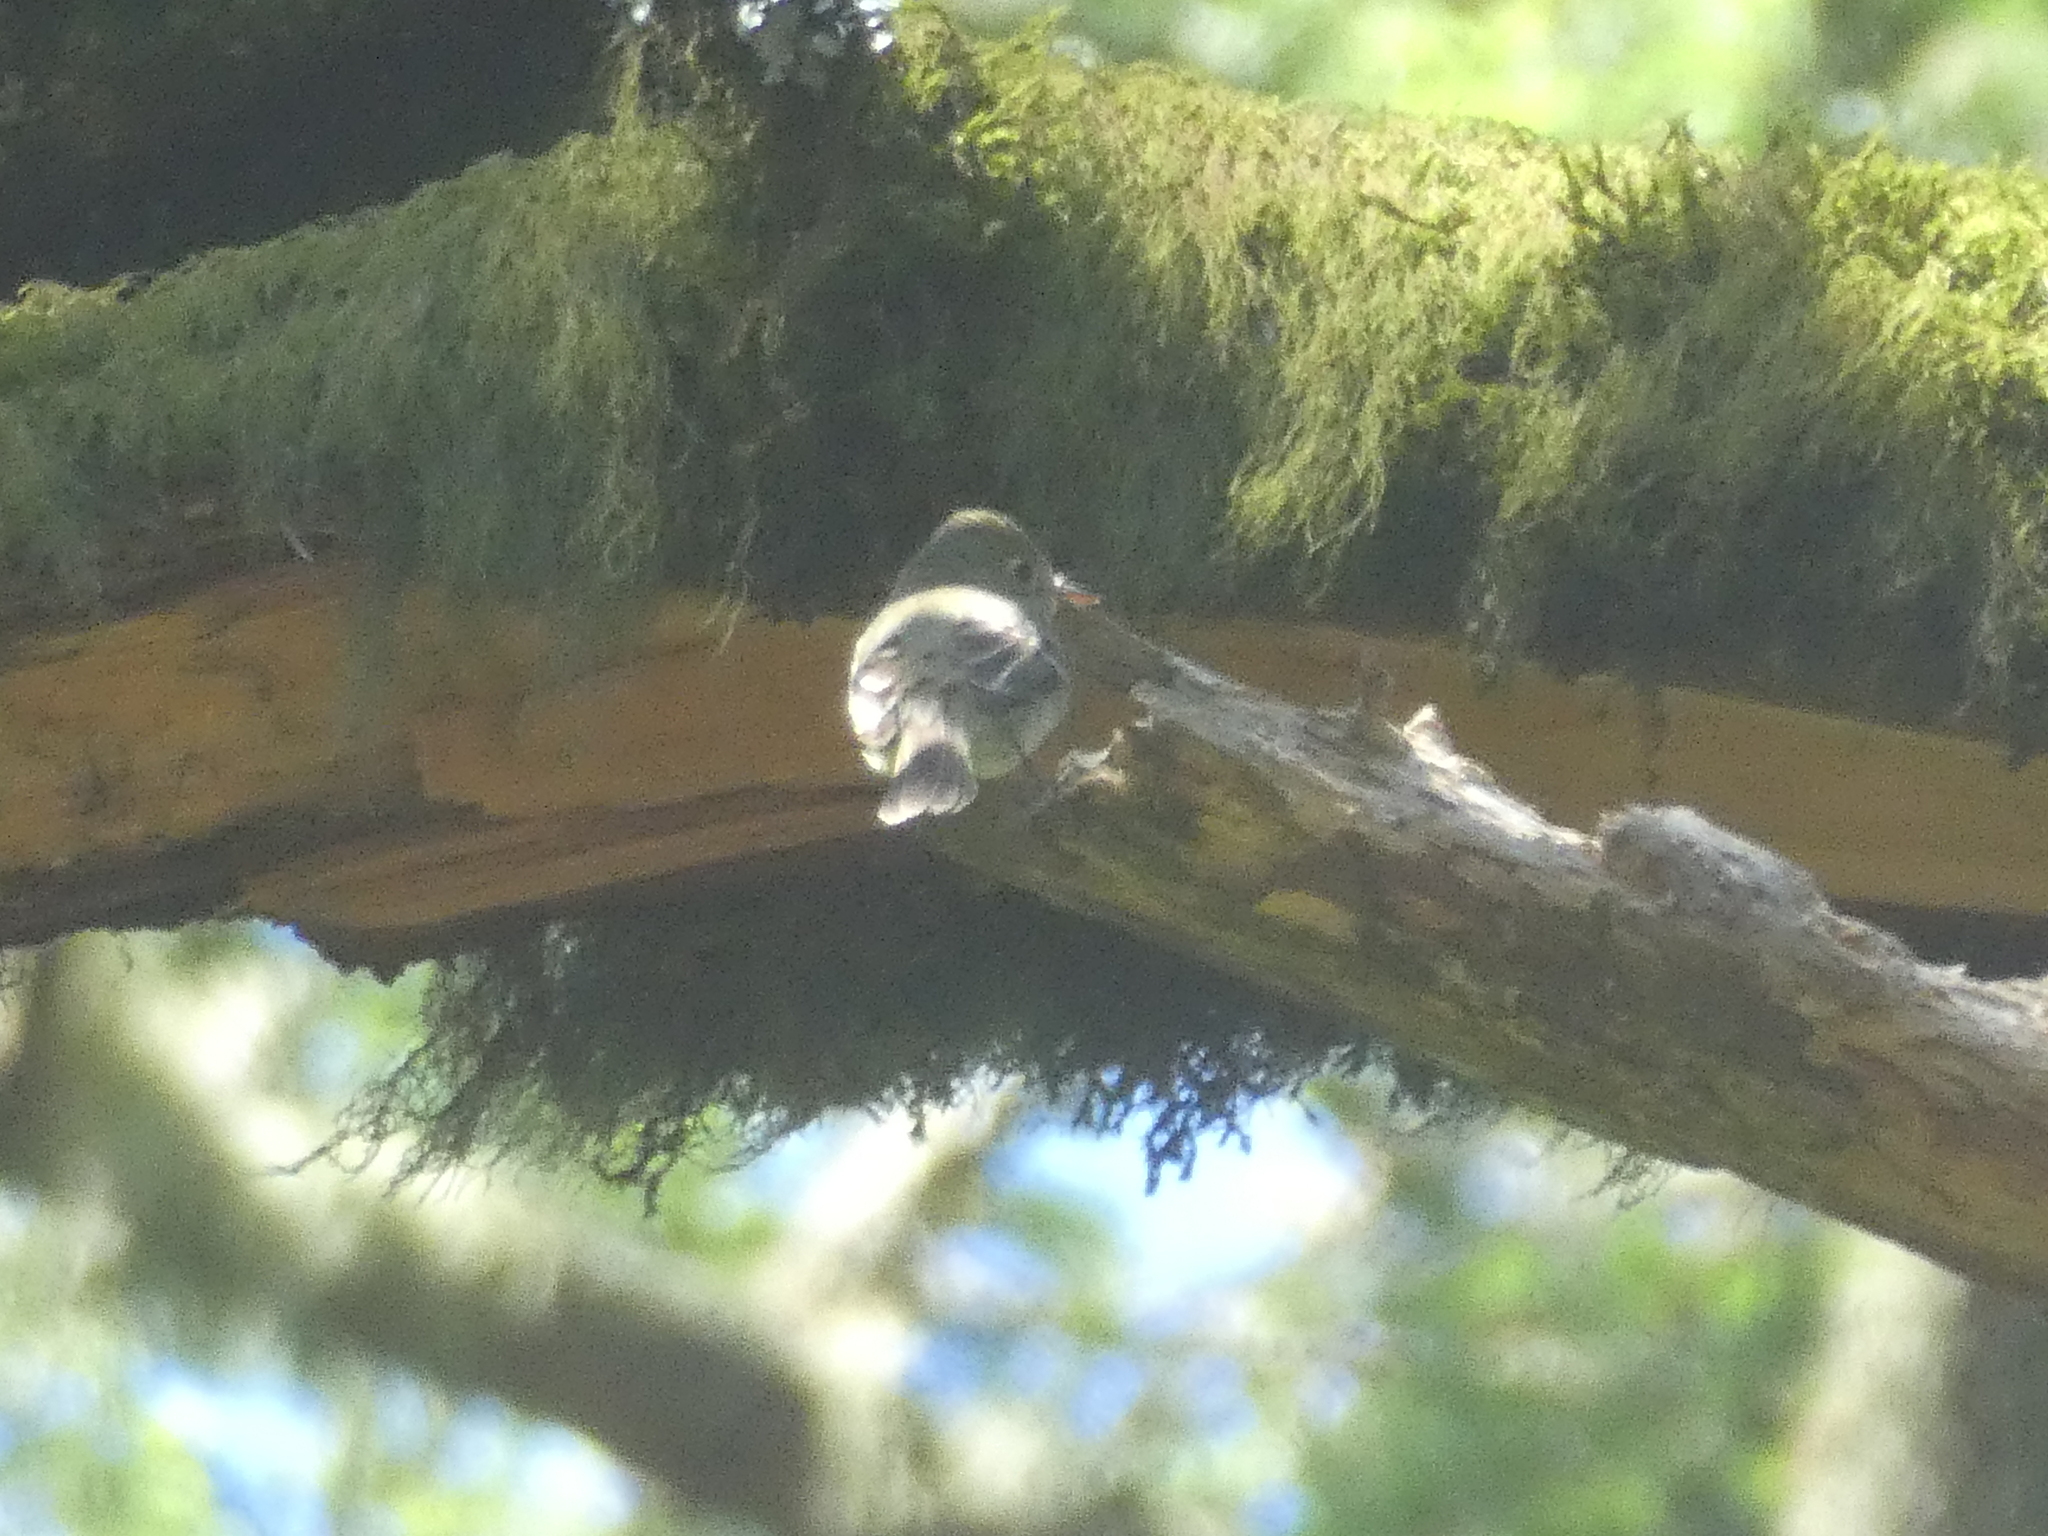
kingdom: Animalia
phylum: Chordata
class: Aves
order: Passeriformes
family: Tyrannidae
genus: Empidonax
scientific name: Empidonax difficilis
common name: Pacific-slope flycatcher
